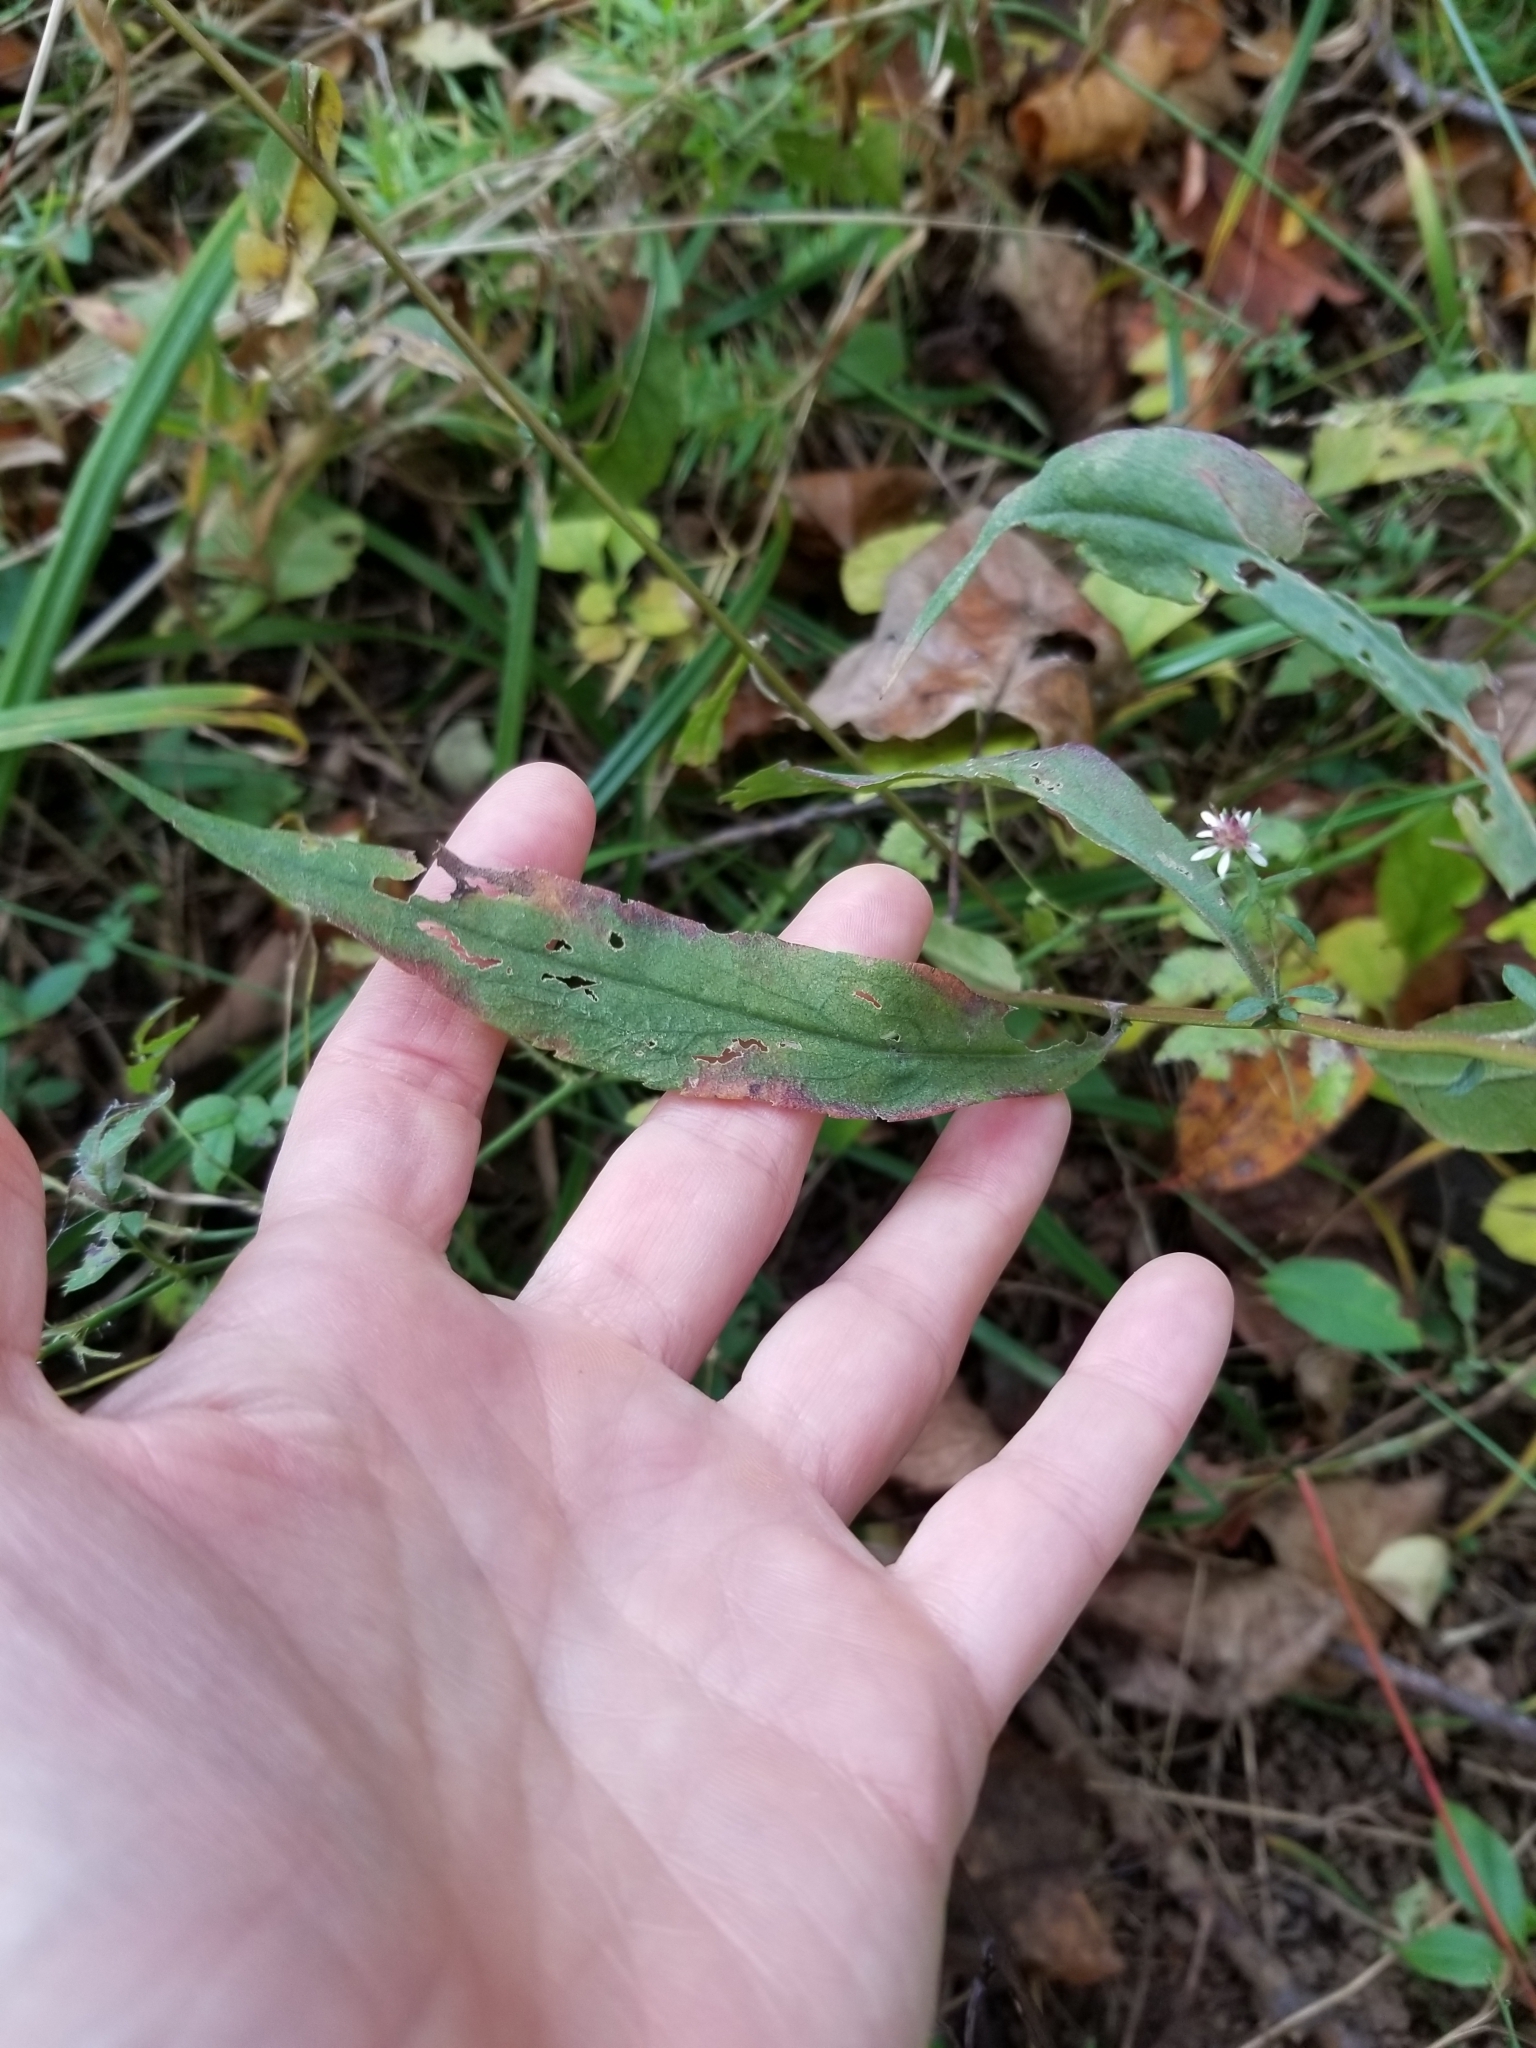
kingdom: Plantae
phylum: Tracheophyta
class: Magnoliopsida
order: Asterales
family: Asteraceae
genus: Symphyotrichum
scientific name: Symphyotrichum lateriflorum
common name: Calico aster
